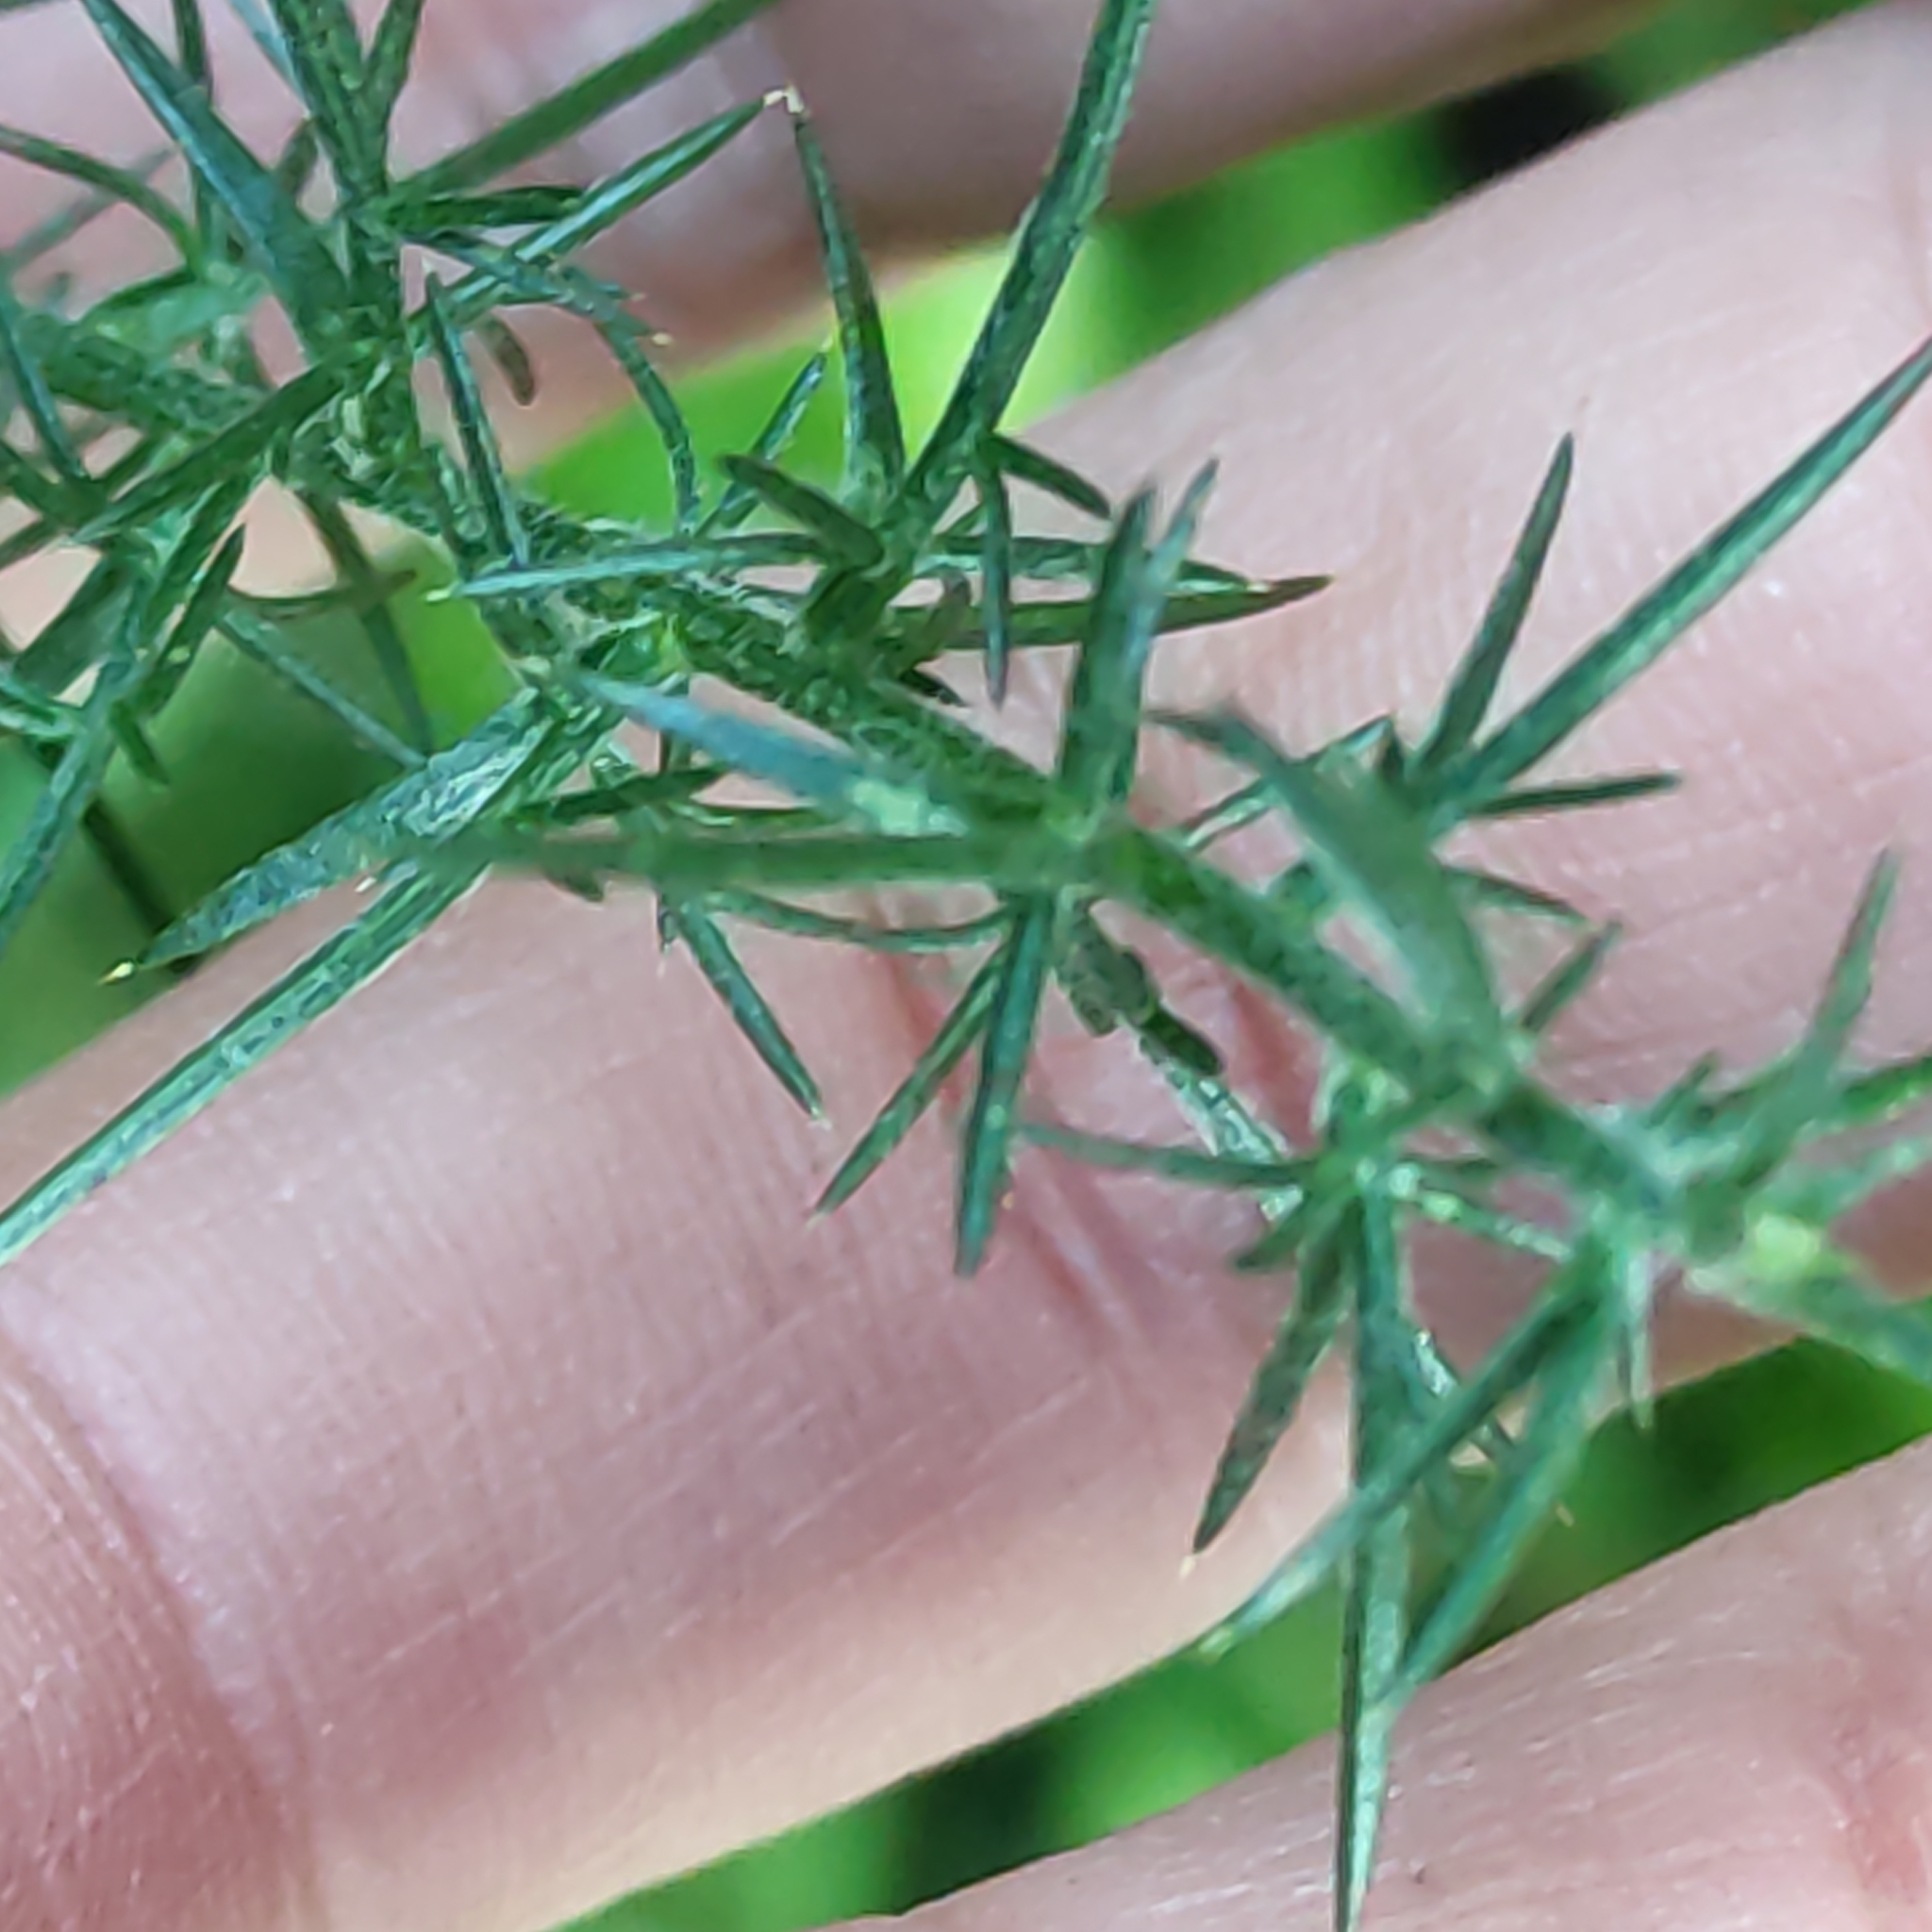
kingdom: Plantae
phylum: Tracheophyta
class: Magnoliopsida
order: Fabales
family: Fabaceae
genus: Ulex
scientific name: Ulex europaeus
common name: Common gorse
